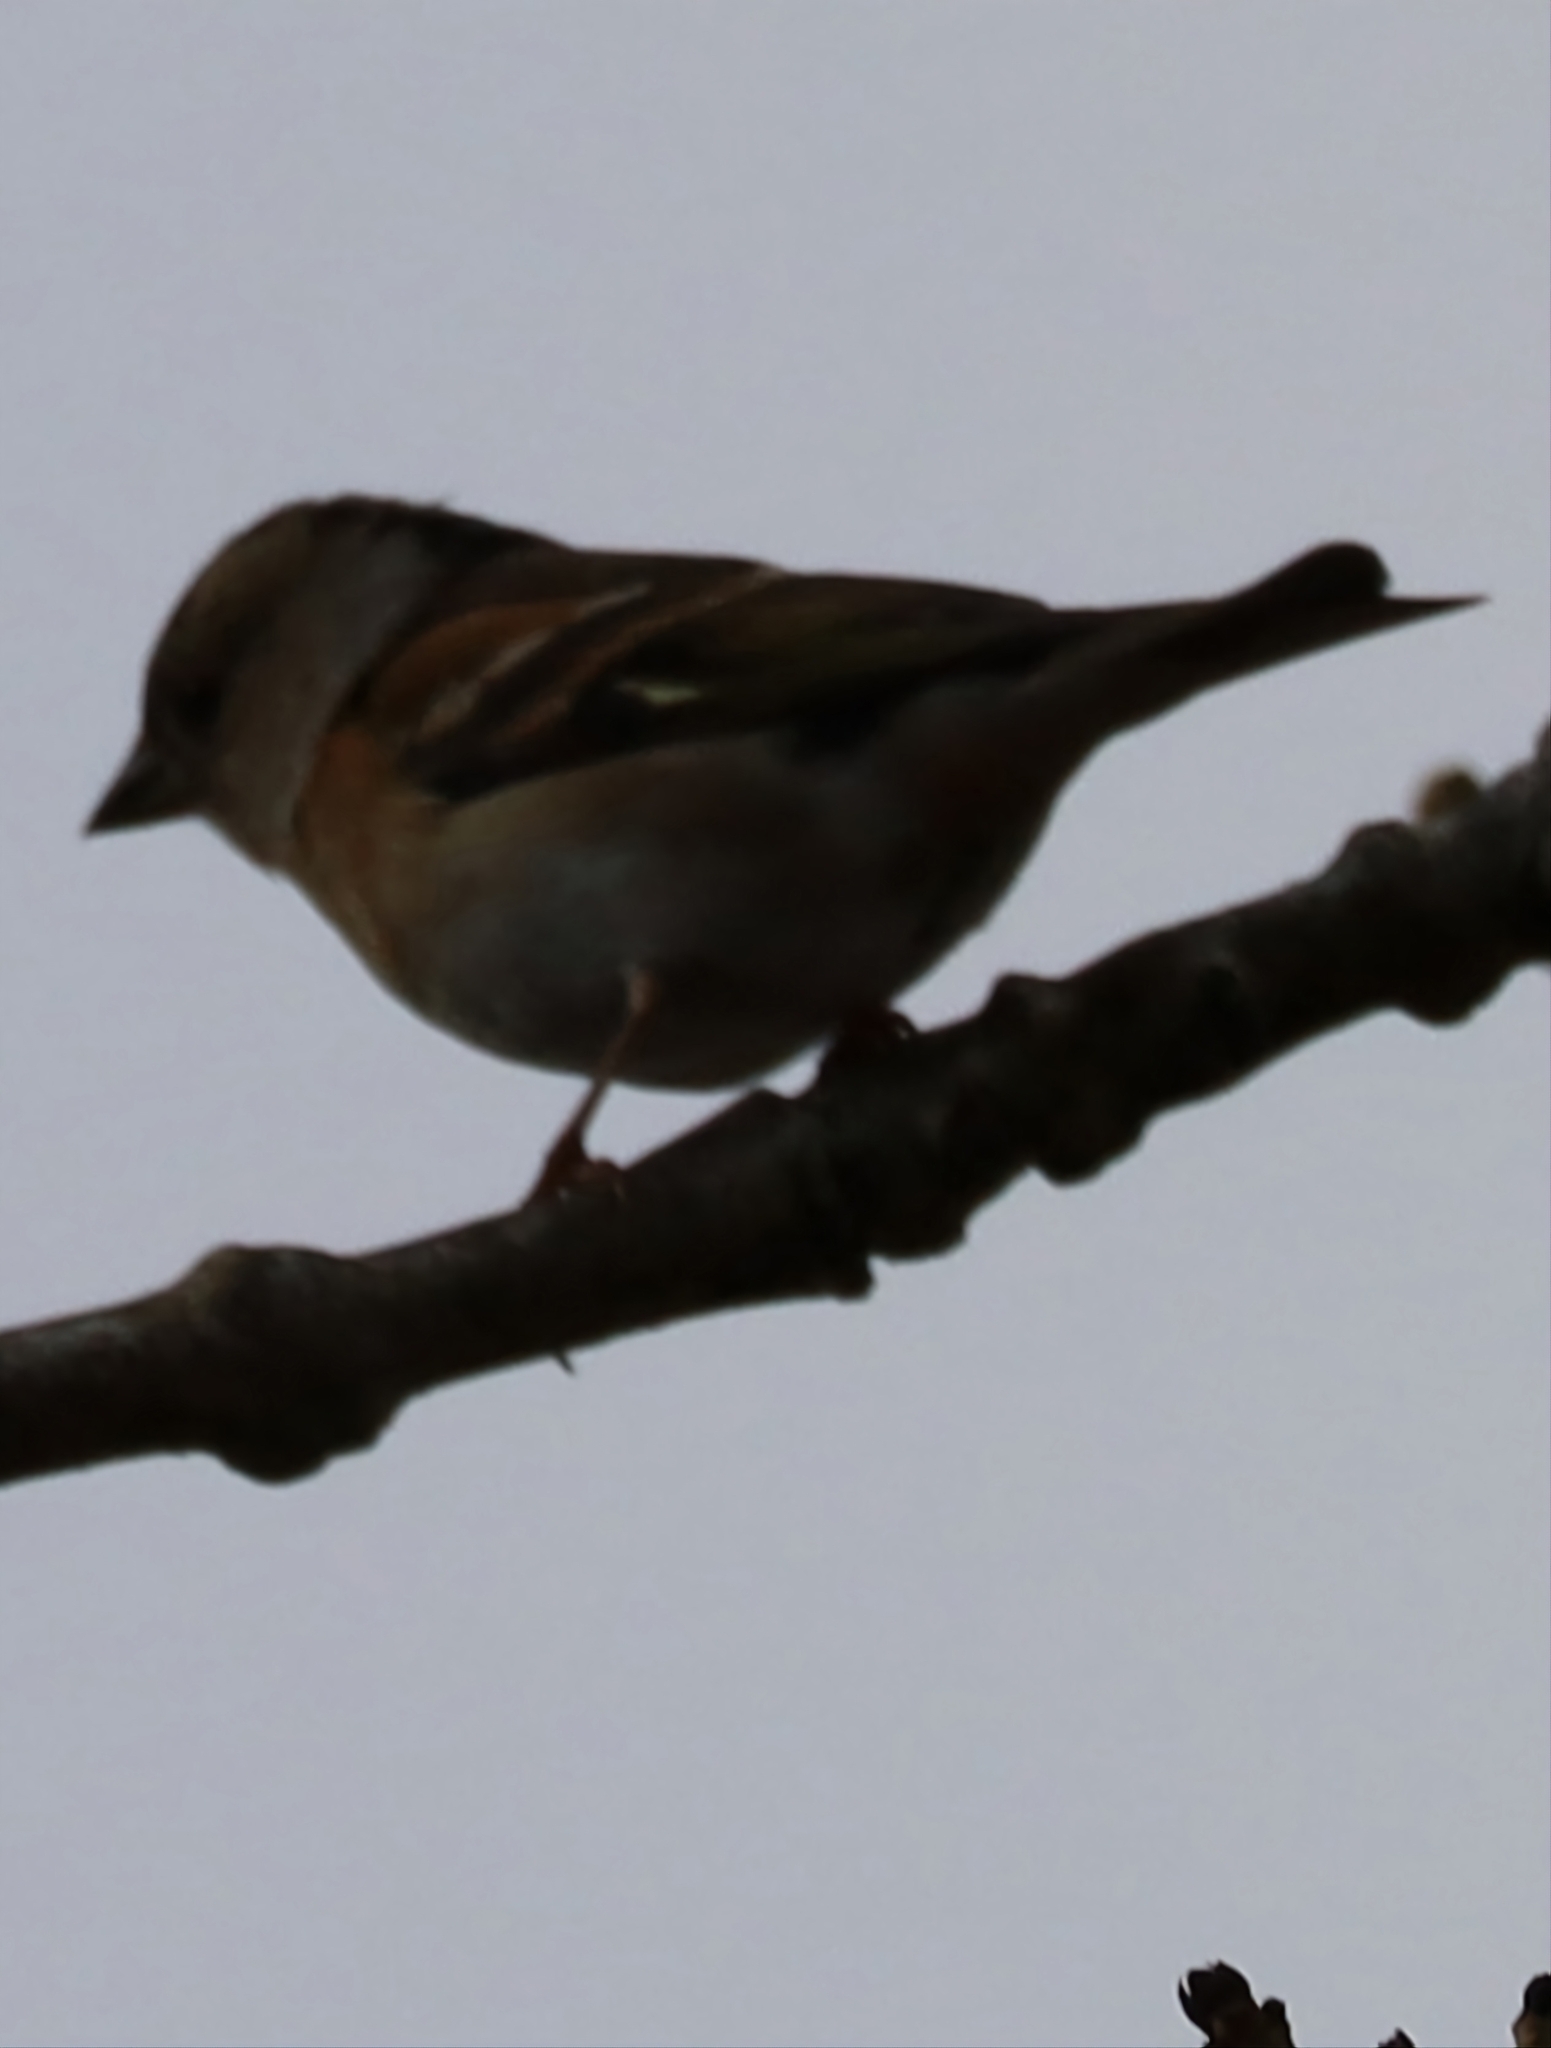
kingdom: Animalia
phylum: Chordata
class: Aves
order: Passeriformes
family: Fringillidae
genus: Fringilla
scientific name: Fringilla montifringilla
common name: Brambling
